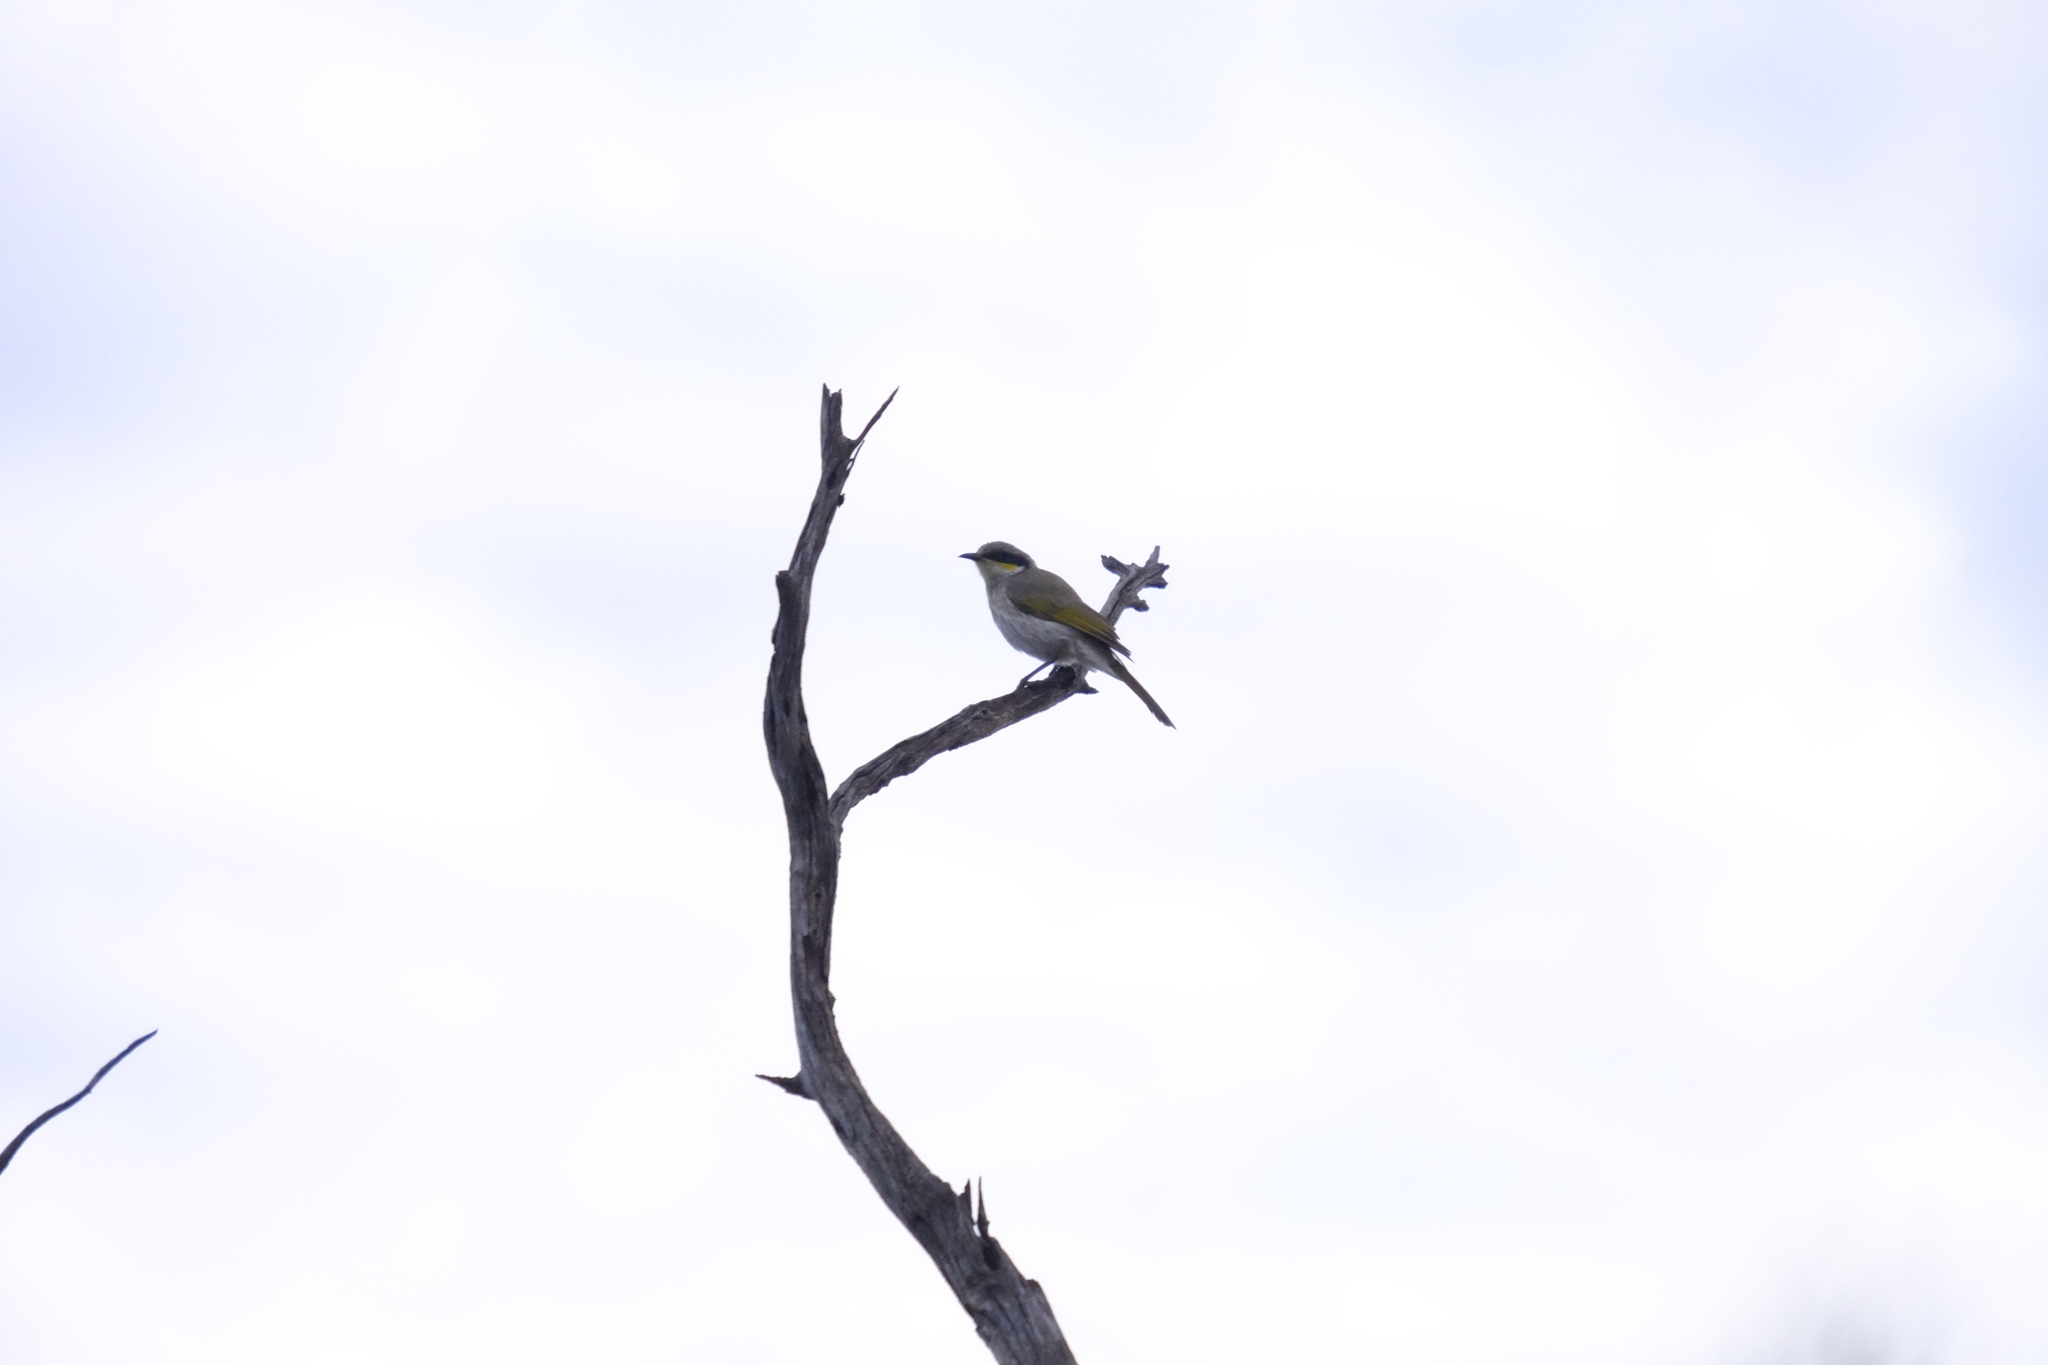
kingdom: Animalia
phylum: Chordata
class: Aves
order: Passeriformes
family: Meliphagidae
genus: Gavicalis
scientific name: Gavicalis virescens
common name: Singing honeyeater
